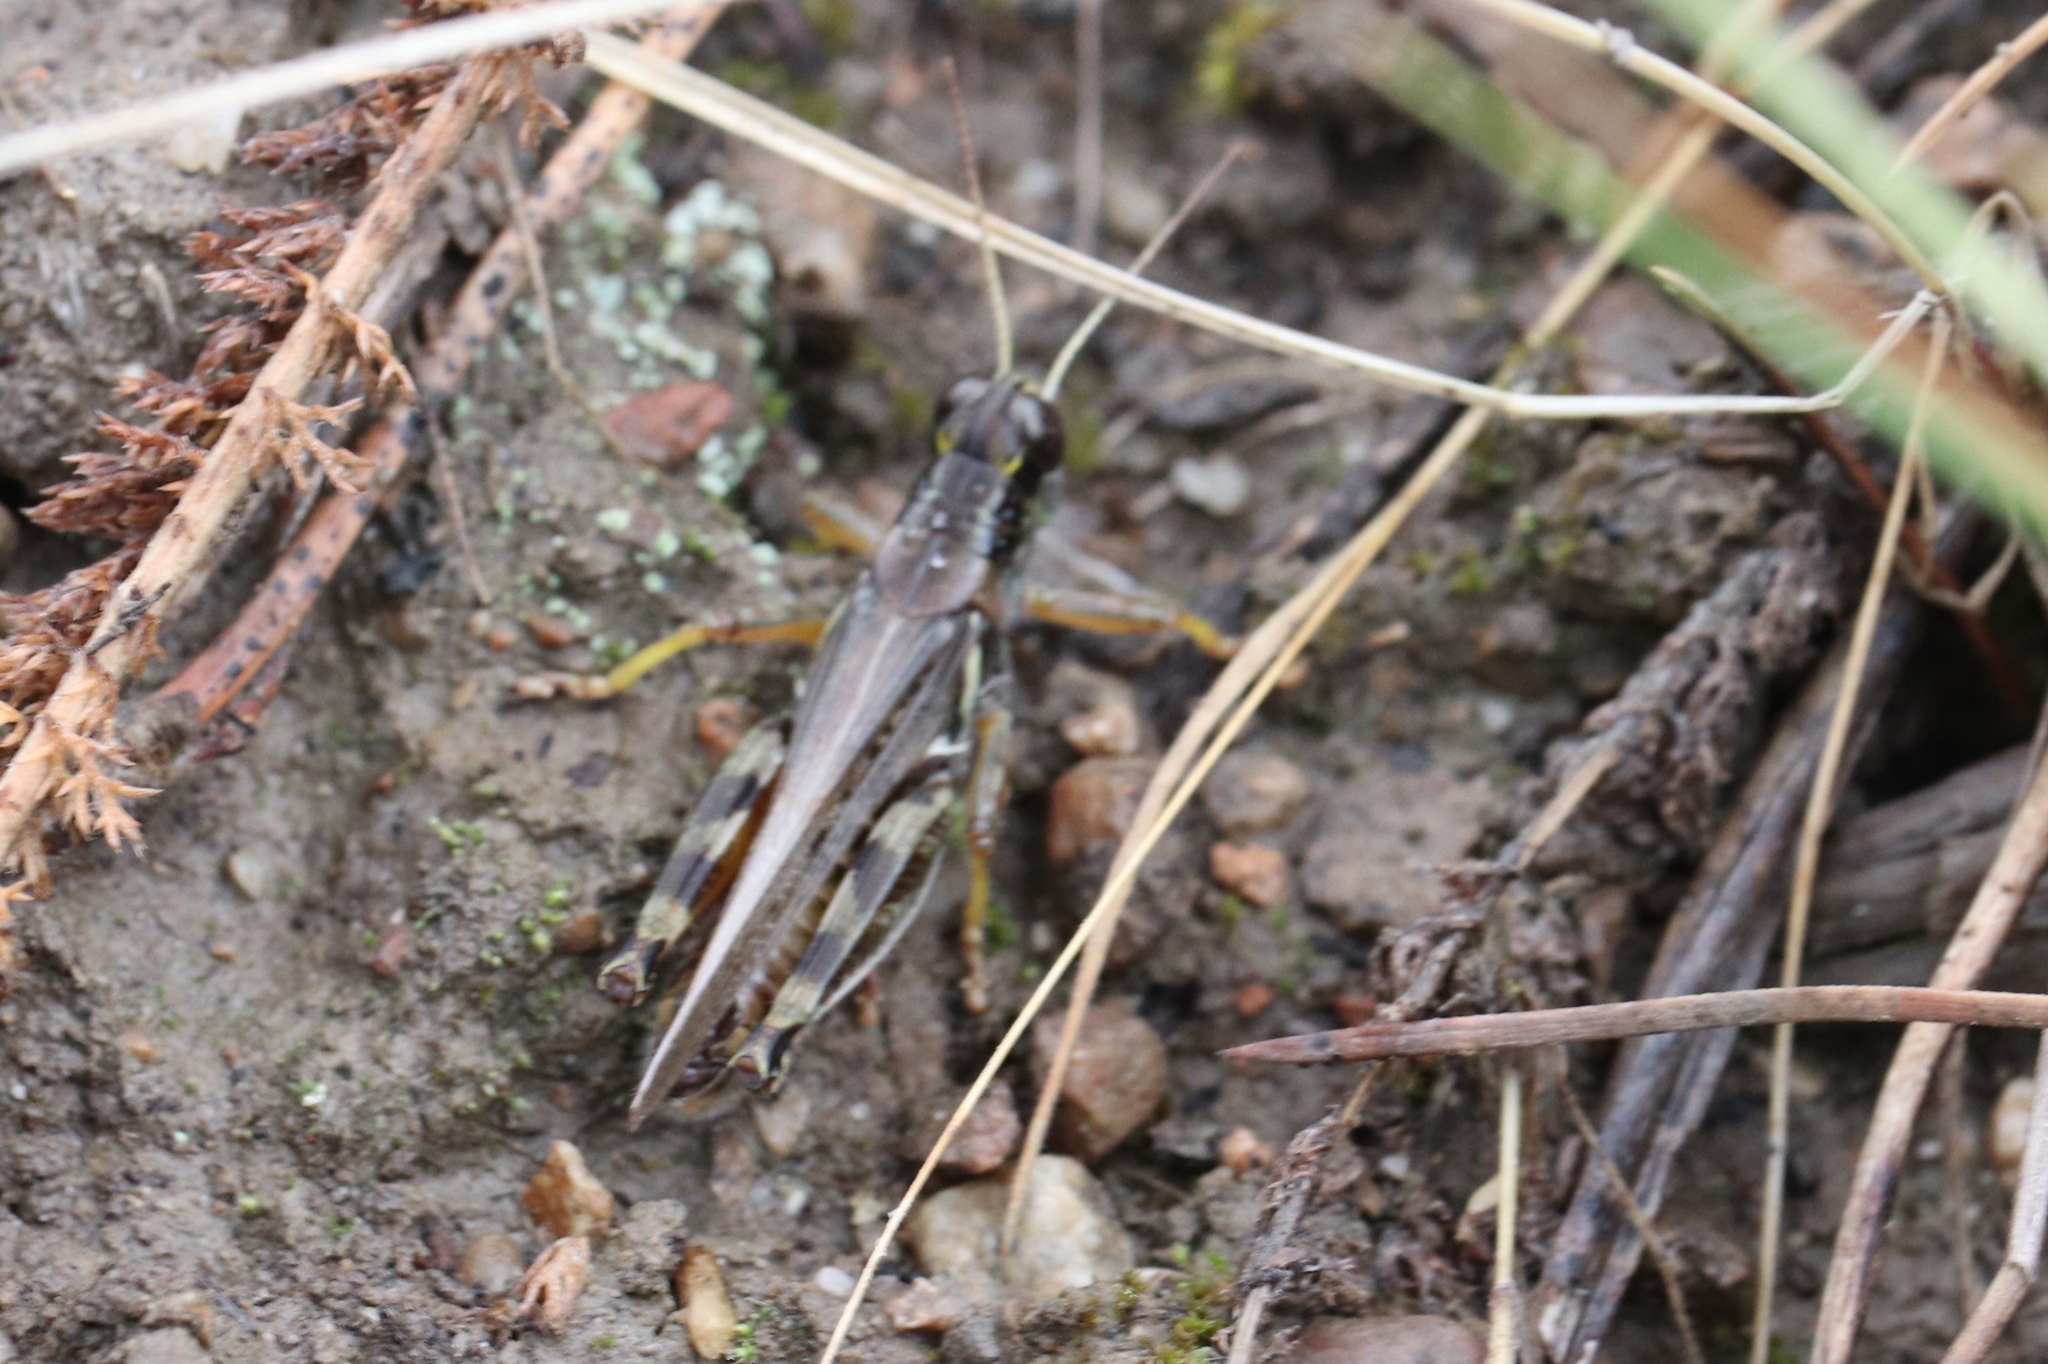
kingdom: Animalia
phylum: Arthropoda
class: Insecta
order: Orthoptera
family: Acrididae
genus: Melanoplus
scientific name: Melanoplus sanguinipes
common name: Migratory grasshopper
